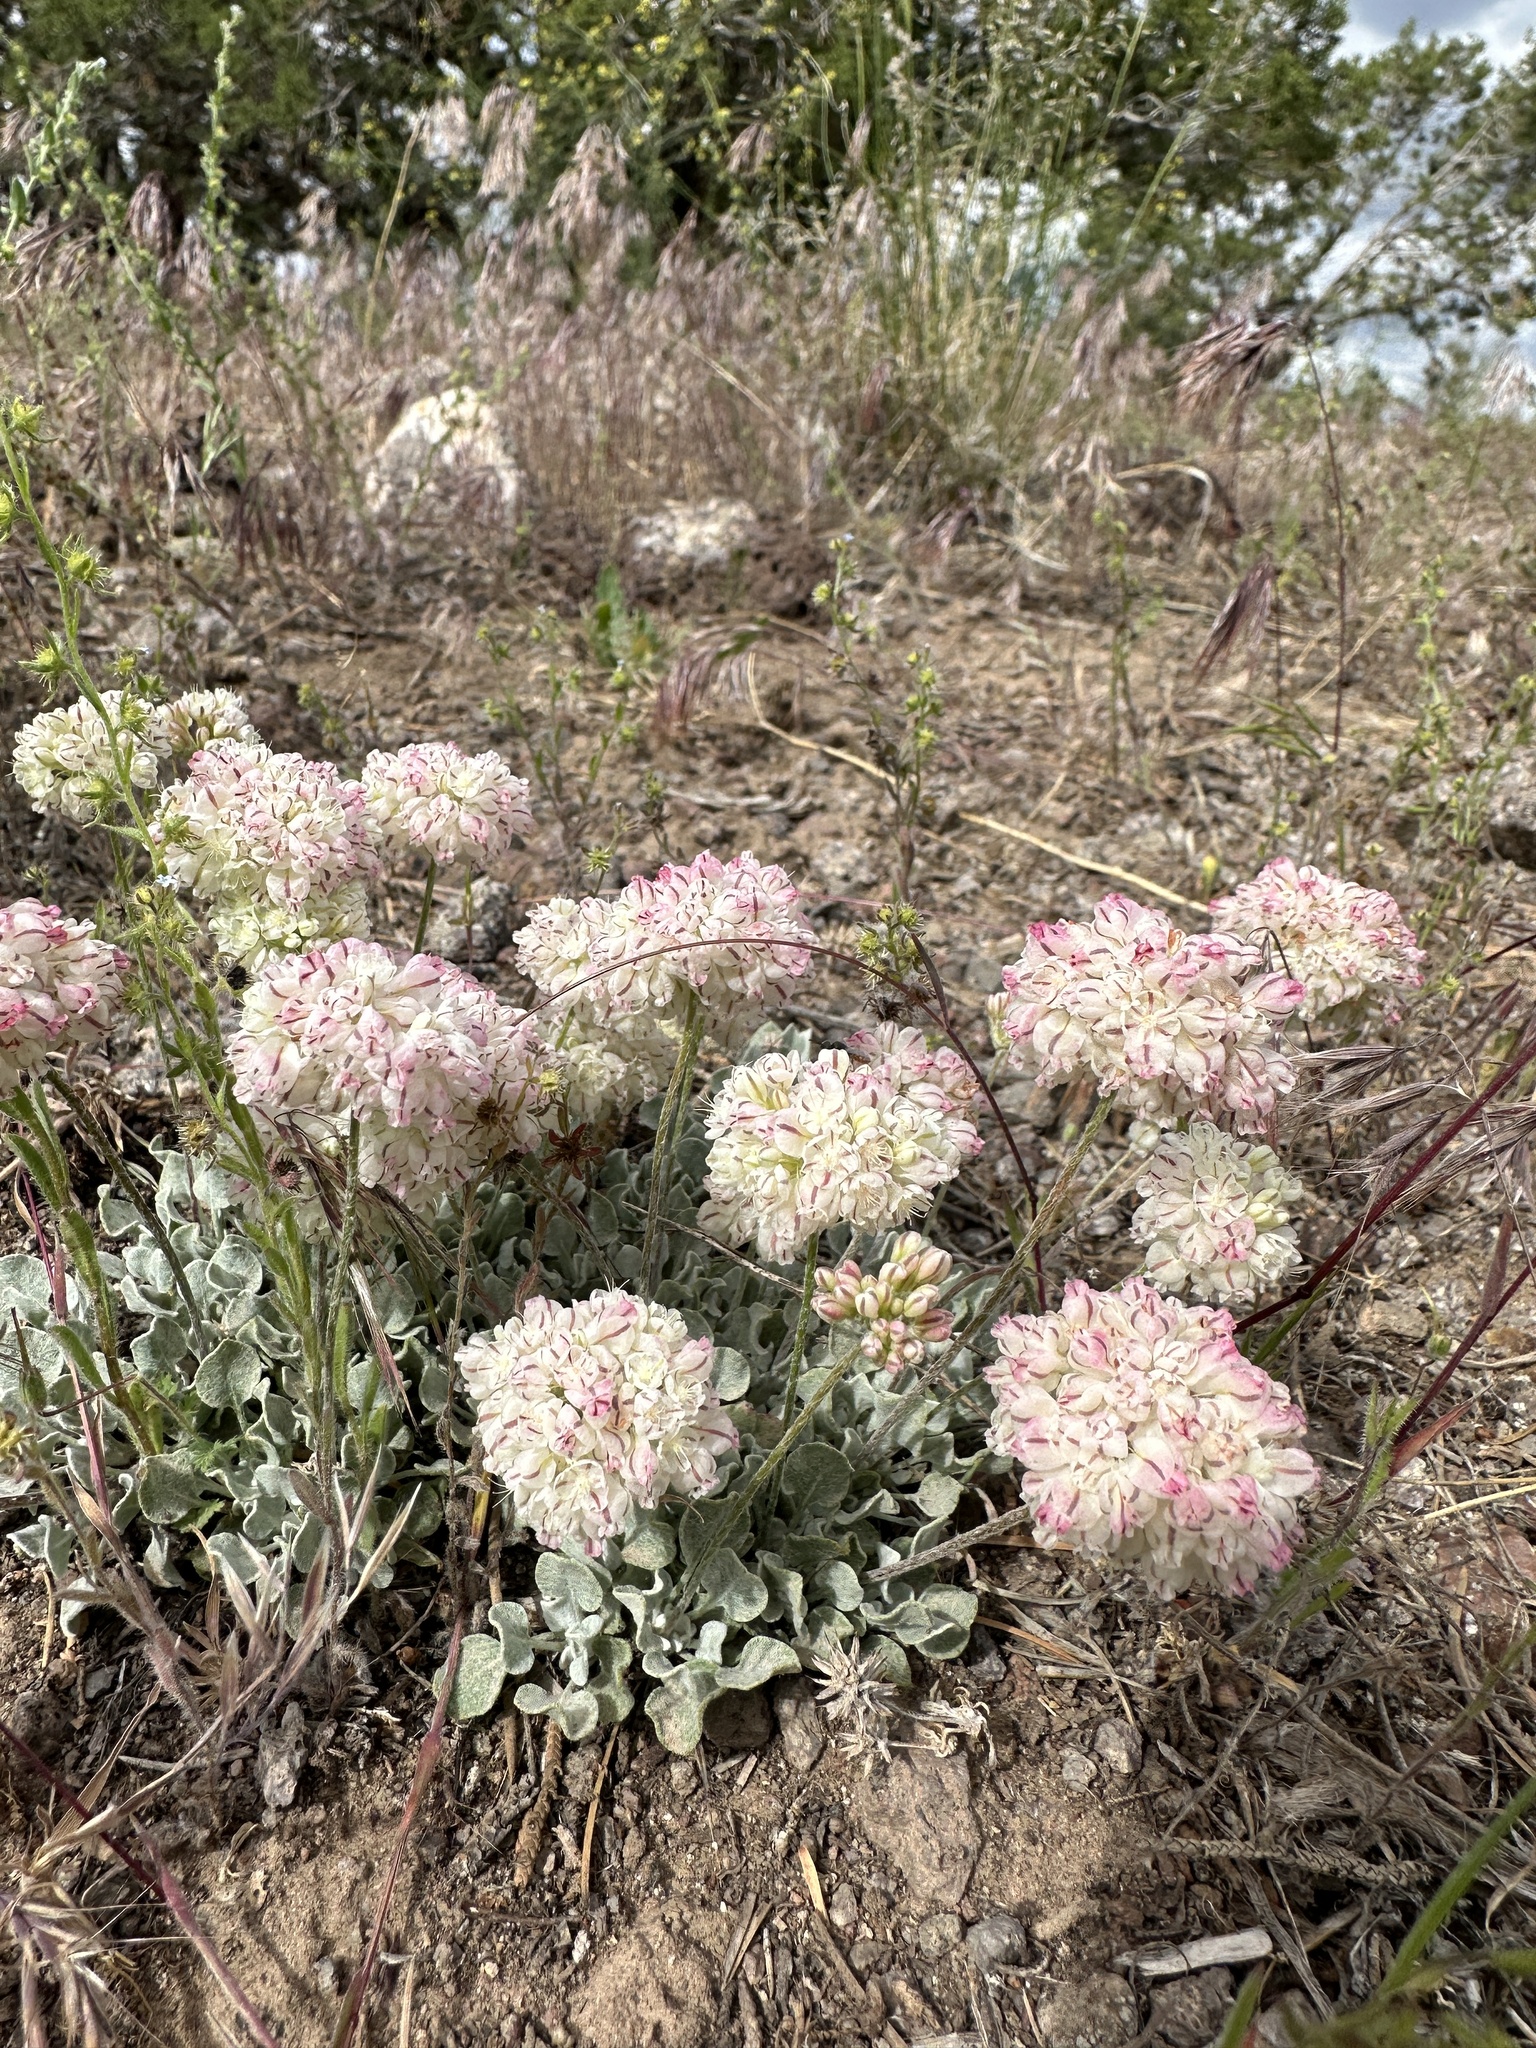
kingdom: Plantae
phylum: Tracheophyta
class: Magnoliopsida
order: Caryophyllales
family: Polygonaceae
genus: Eriogonum
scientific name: Eriogonum ovalifolium
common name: Cushion buckwheat
